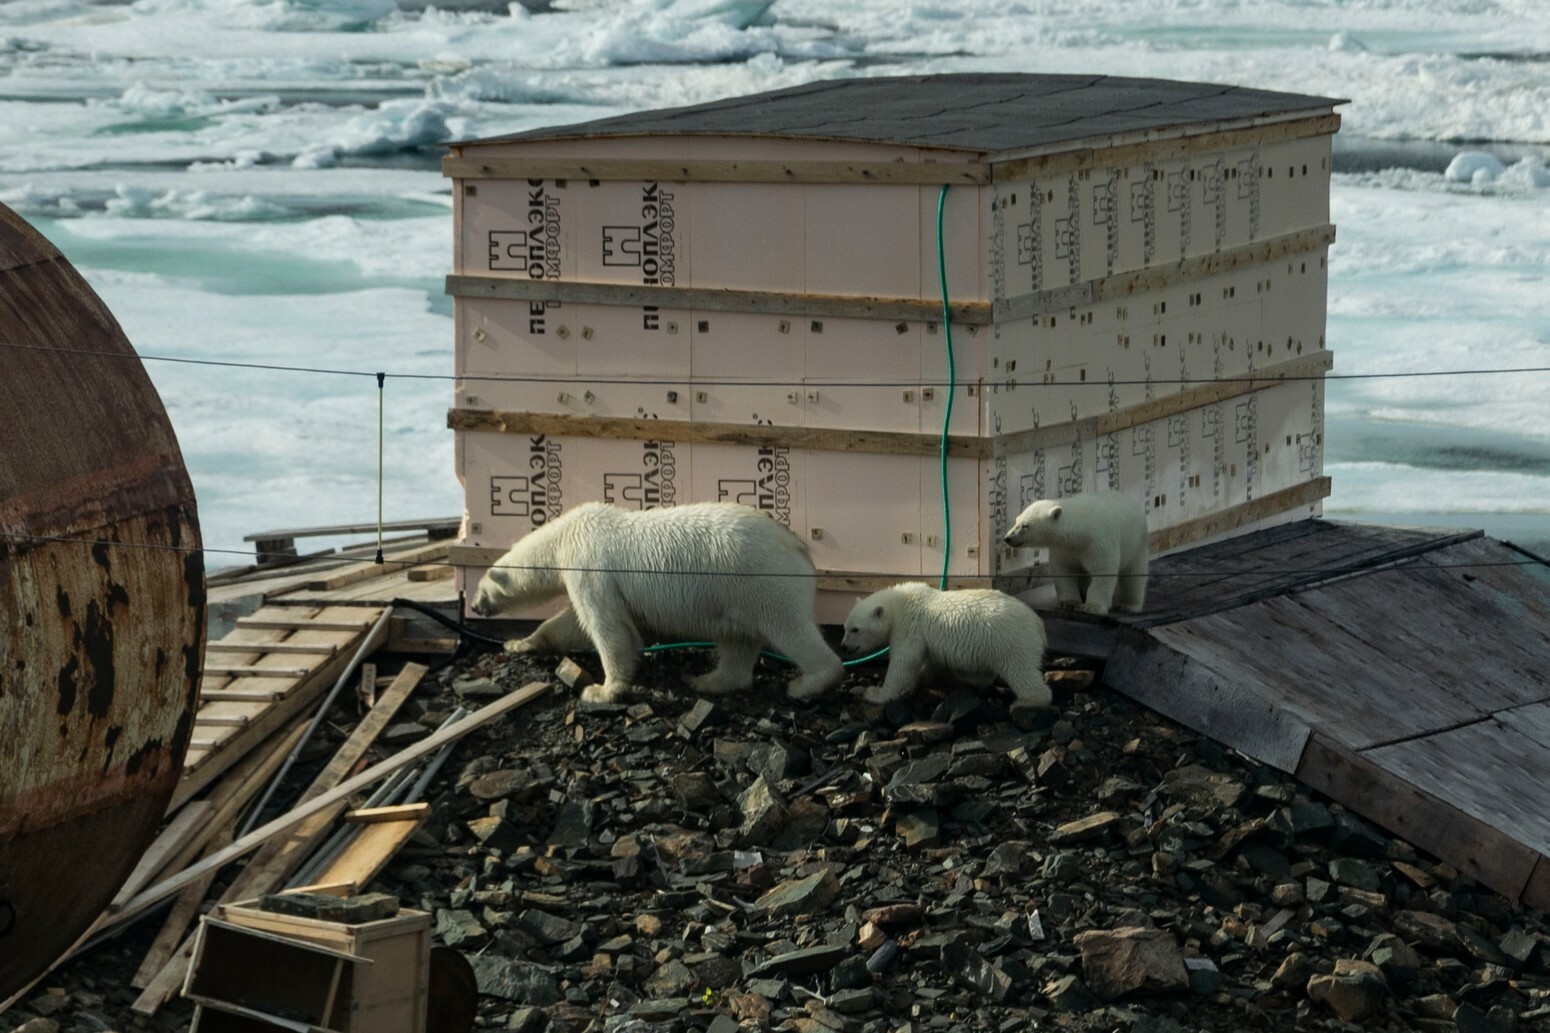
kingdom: Animalia
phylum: Chordata
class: Mammalia
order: Carnivora
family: Ursidae
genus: Ursus
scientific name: Ursus maritimus
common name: Polar bear
